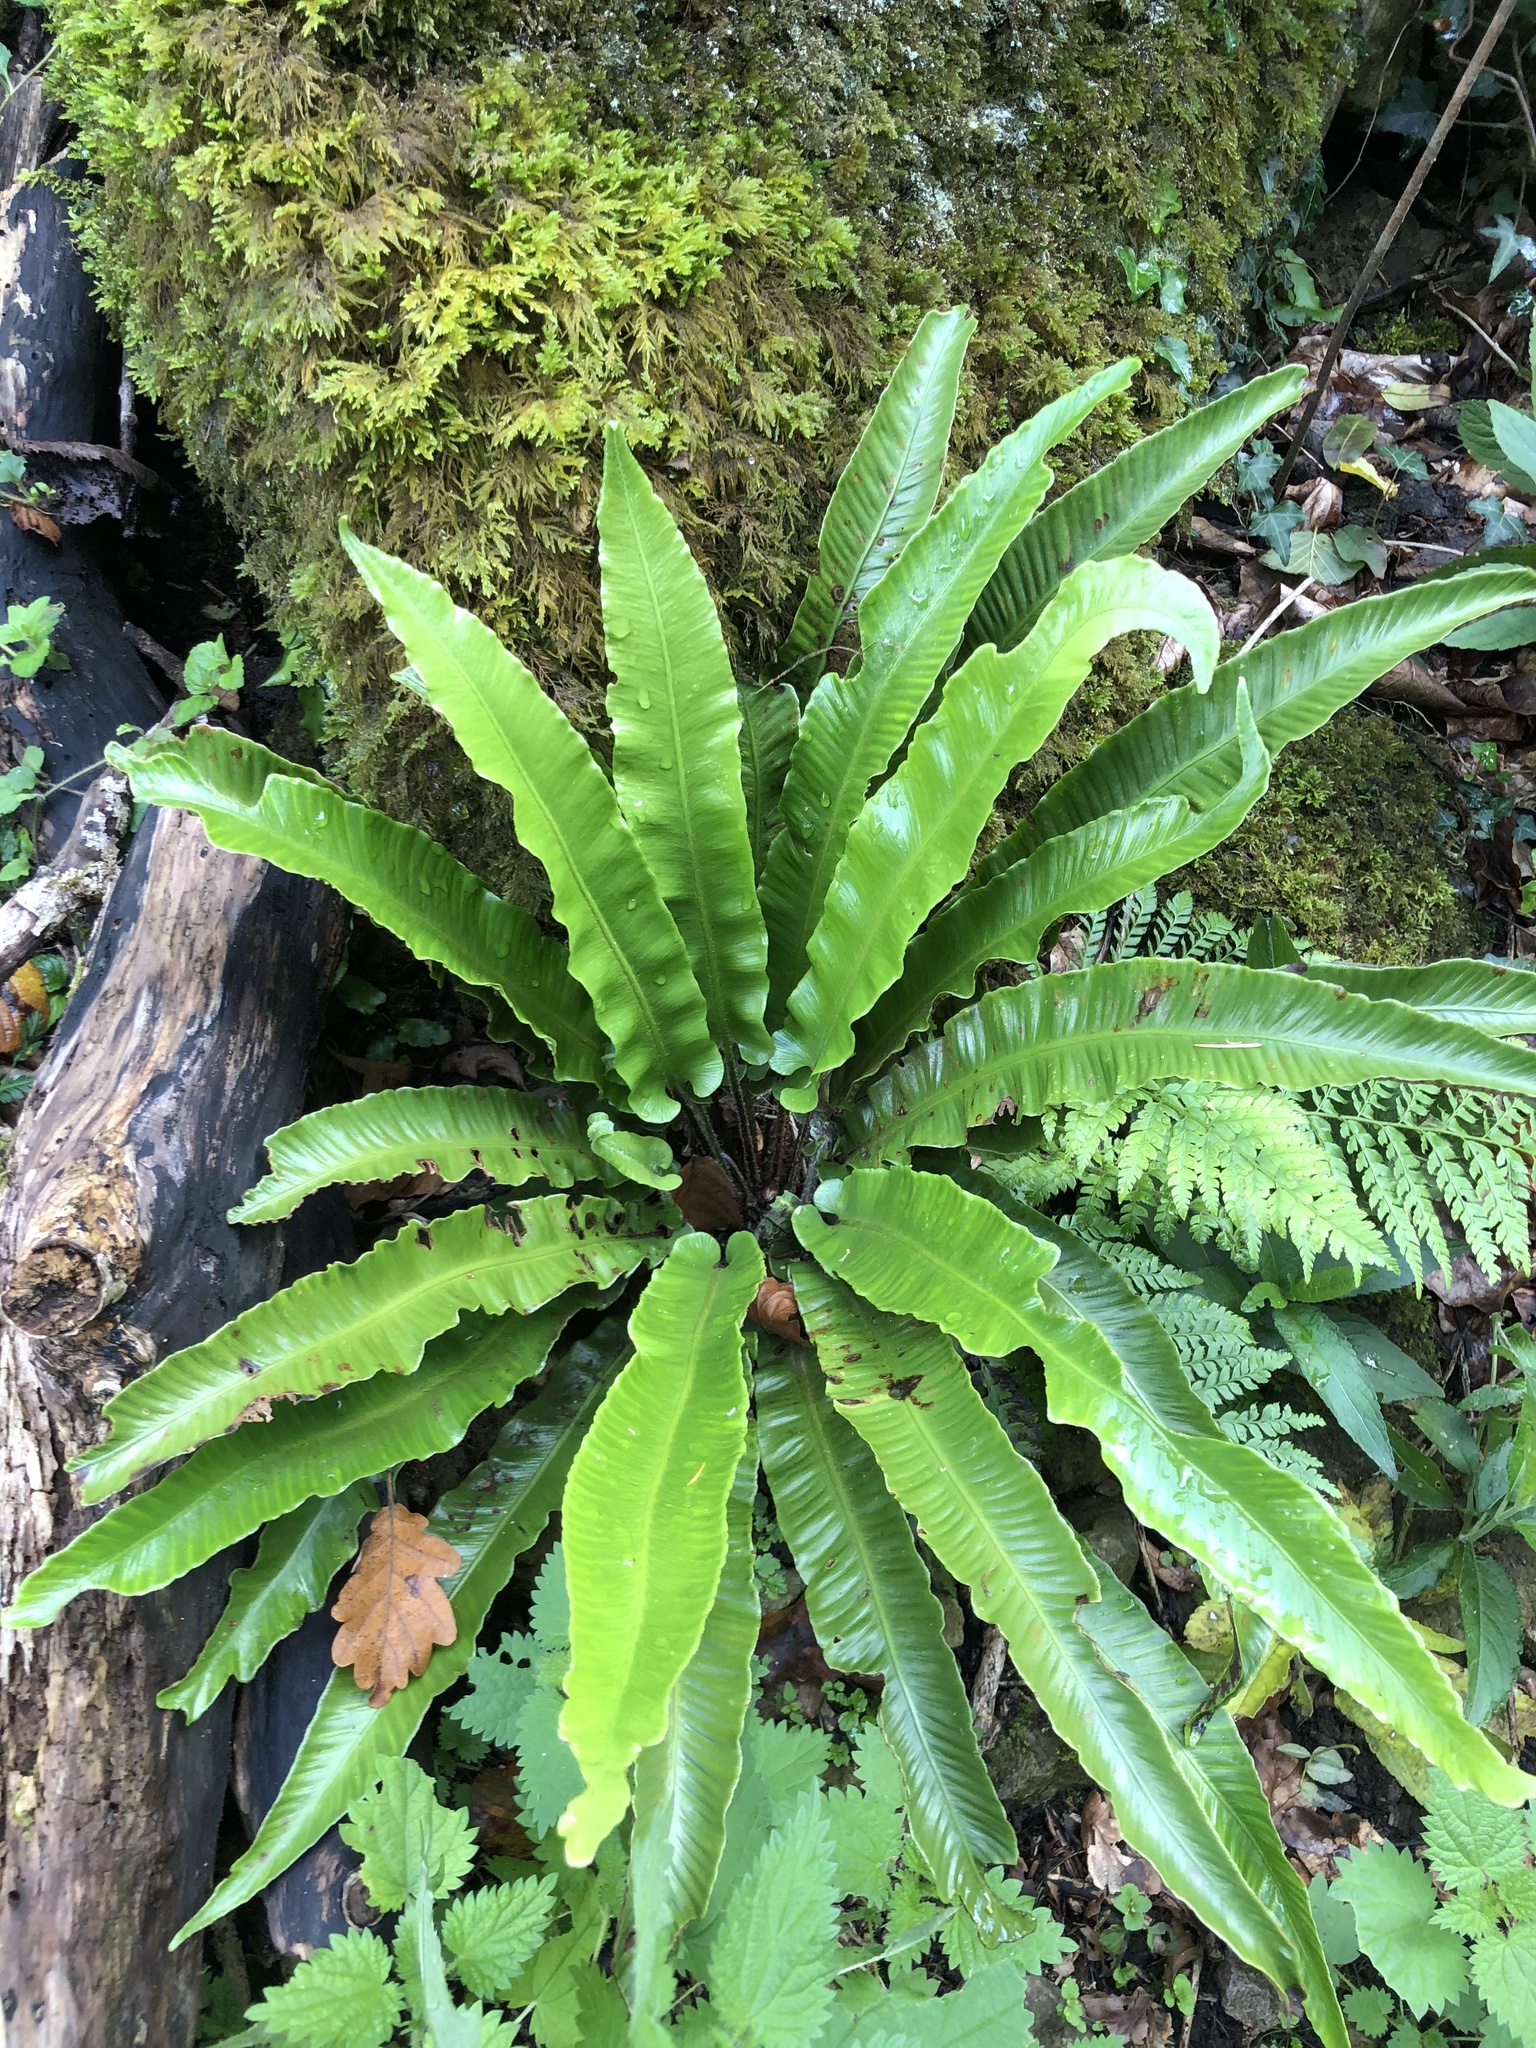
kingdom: Plantae
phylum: Tracheophyta
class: Polypodiopsida
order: Polypodiales
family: Aspleniaceae
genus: Asplenium
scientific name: Asplenium scolopendrium
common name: Hart's-tongue fern
